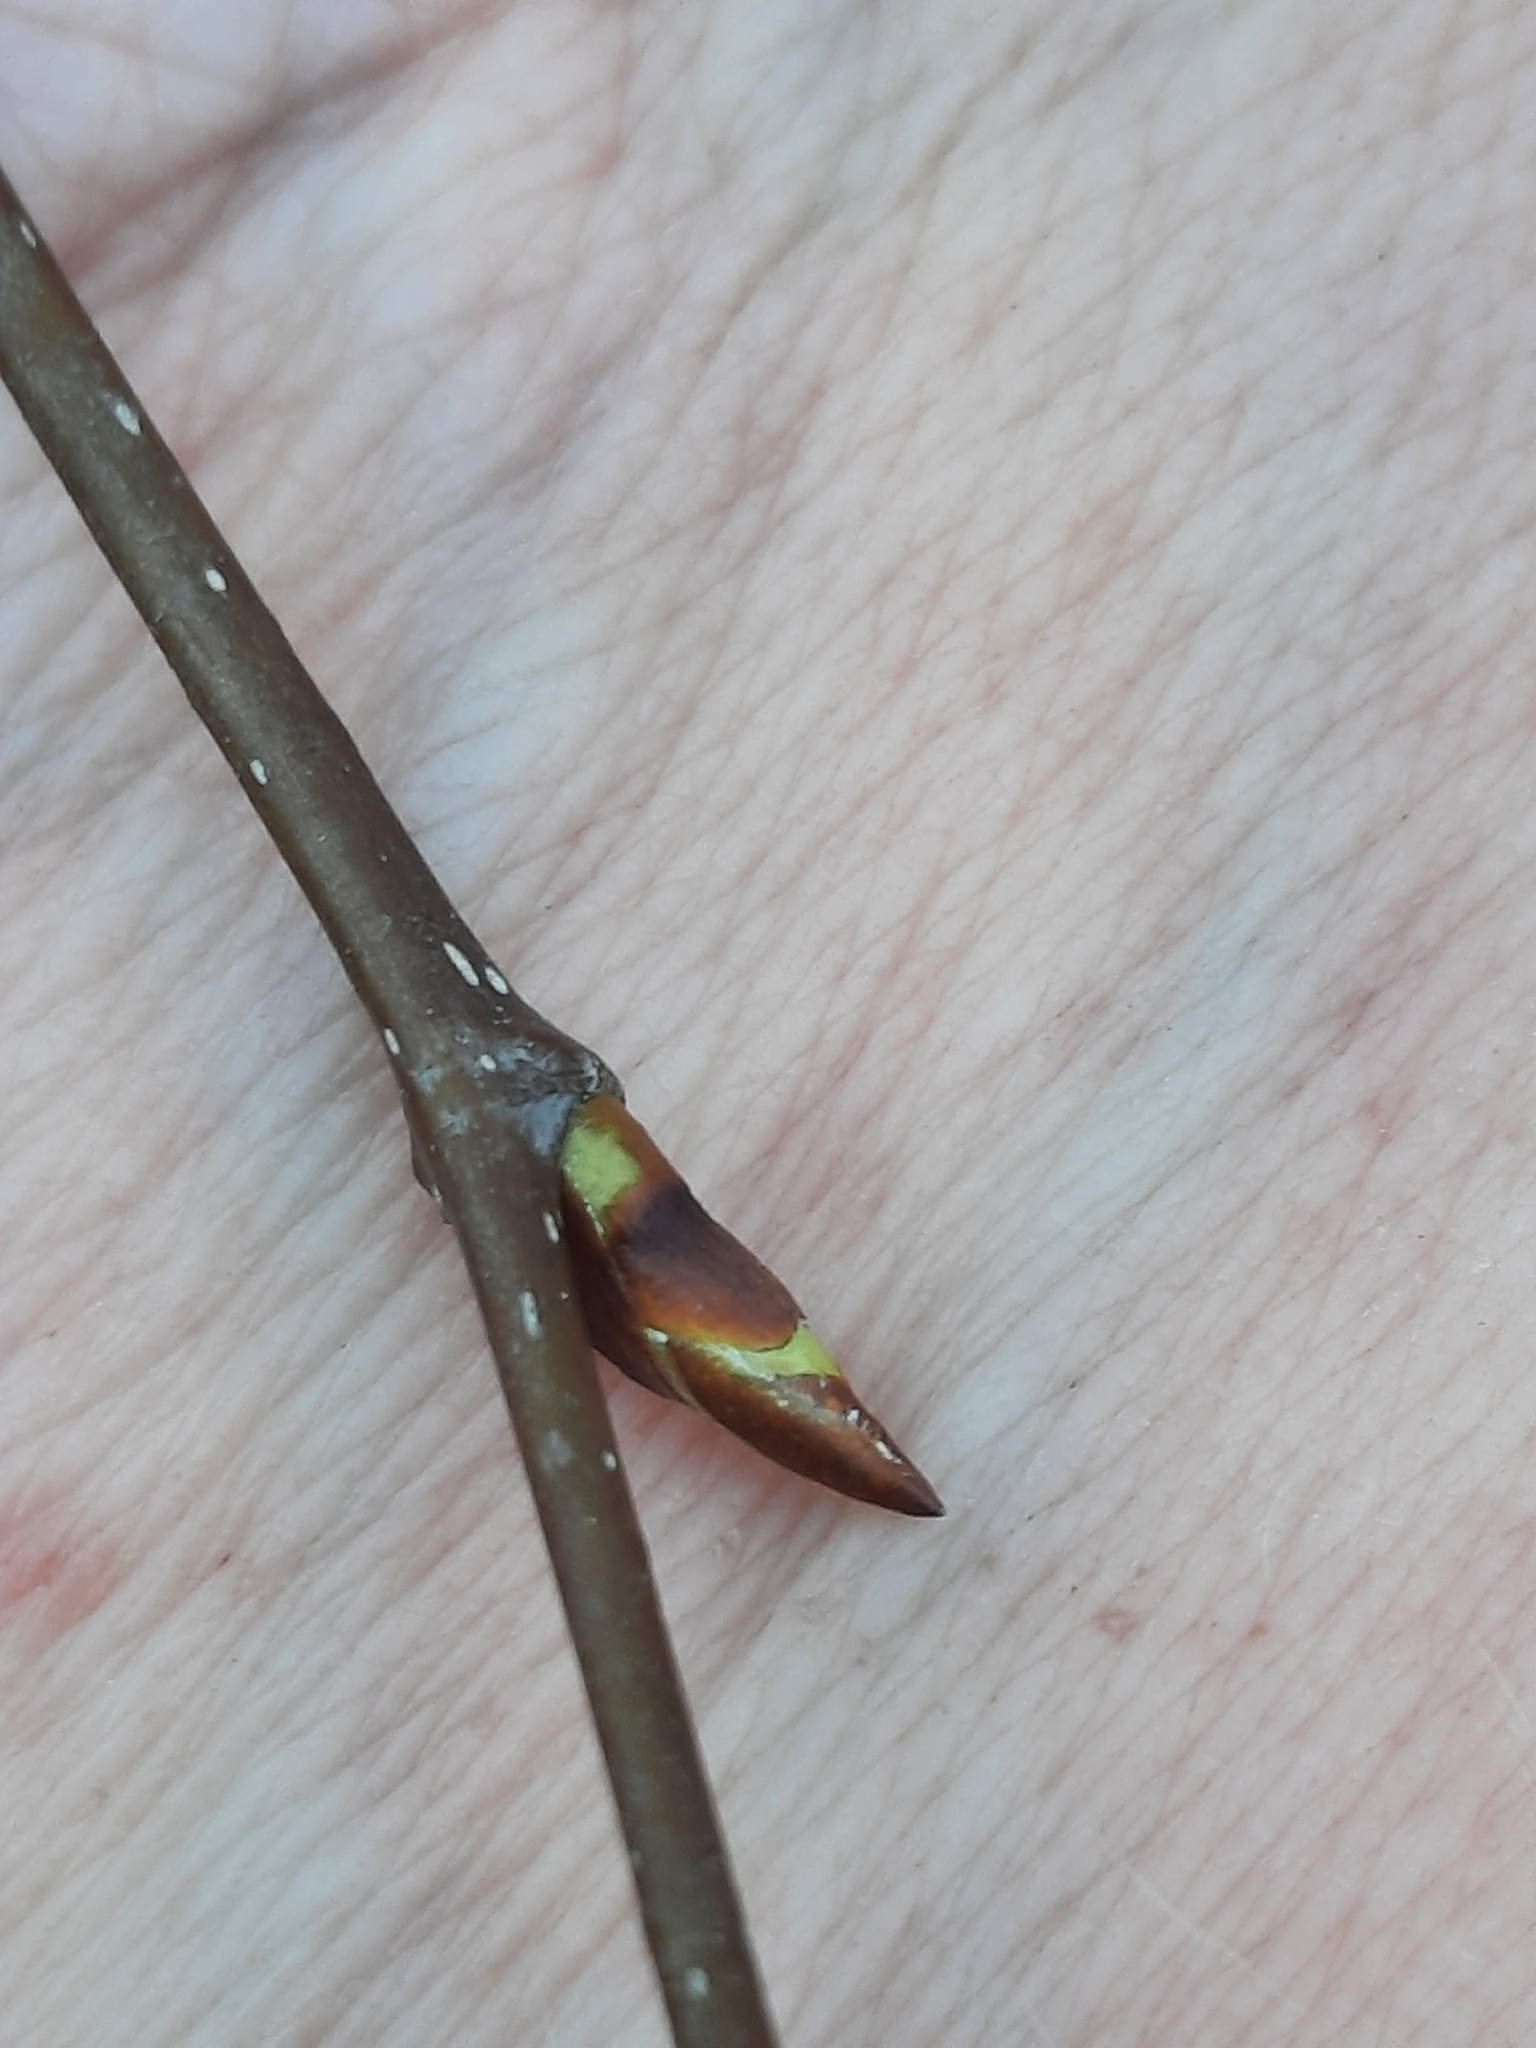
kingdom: Plantae
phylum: Tracheophyta
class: Magnoliopsida
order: Fagales
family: Betulaceae
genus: Betula
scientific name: Betula lenta
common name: Black birch
